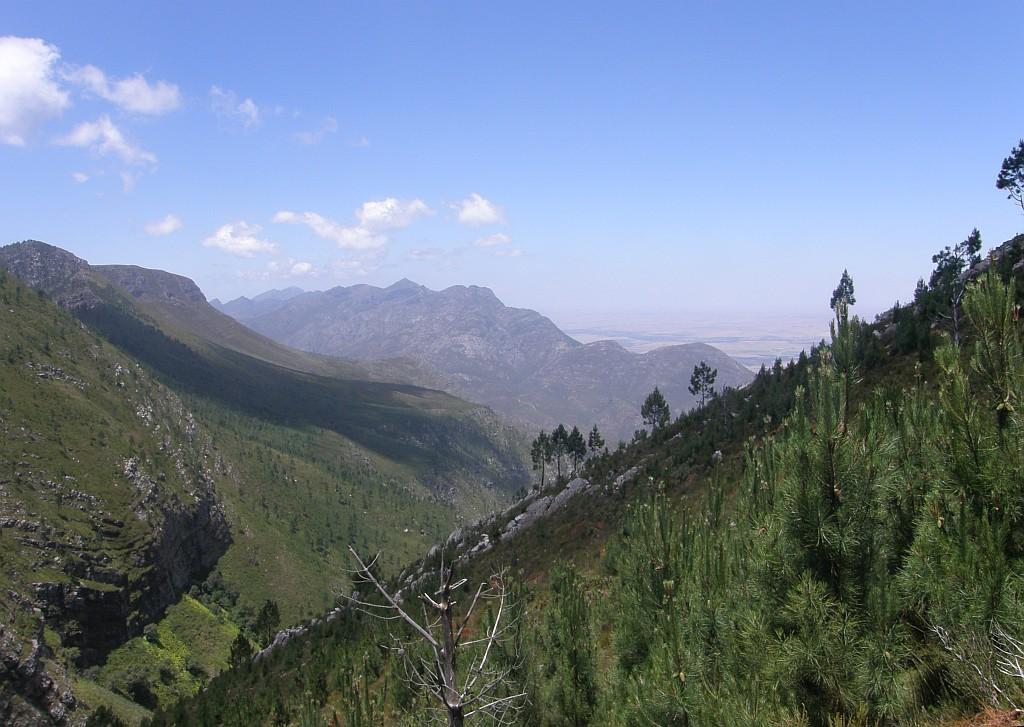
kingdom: Plantae
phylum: Tracheophyta
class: Magnoliopsida
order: Asterales
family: Campanulaceae
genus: Siphocodon
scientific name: Siphocodon spartioides
